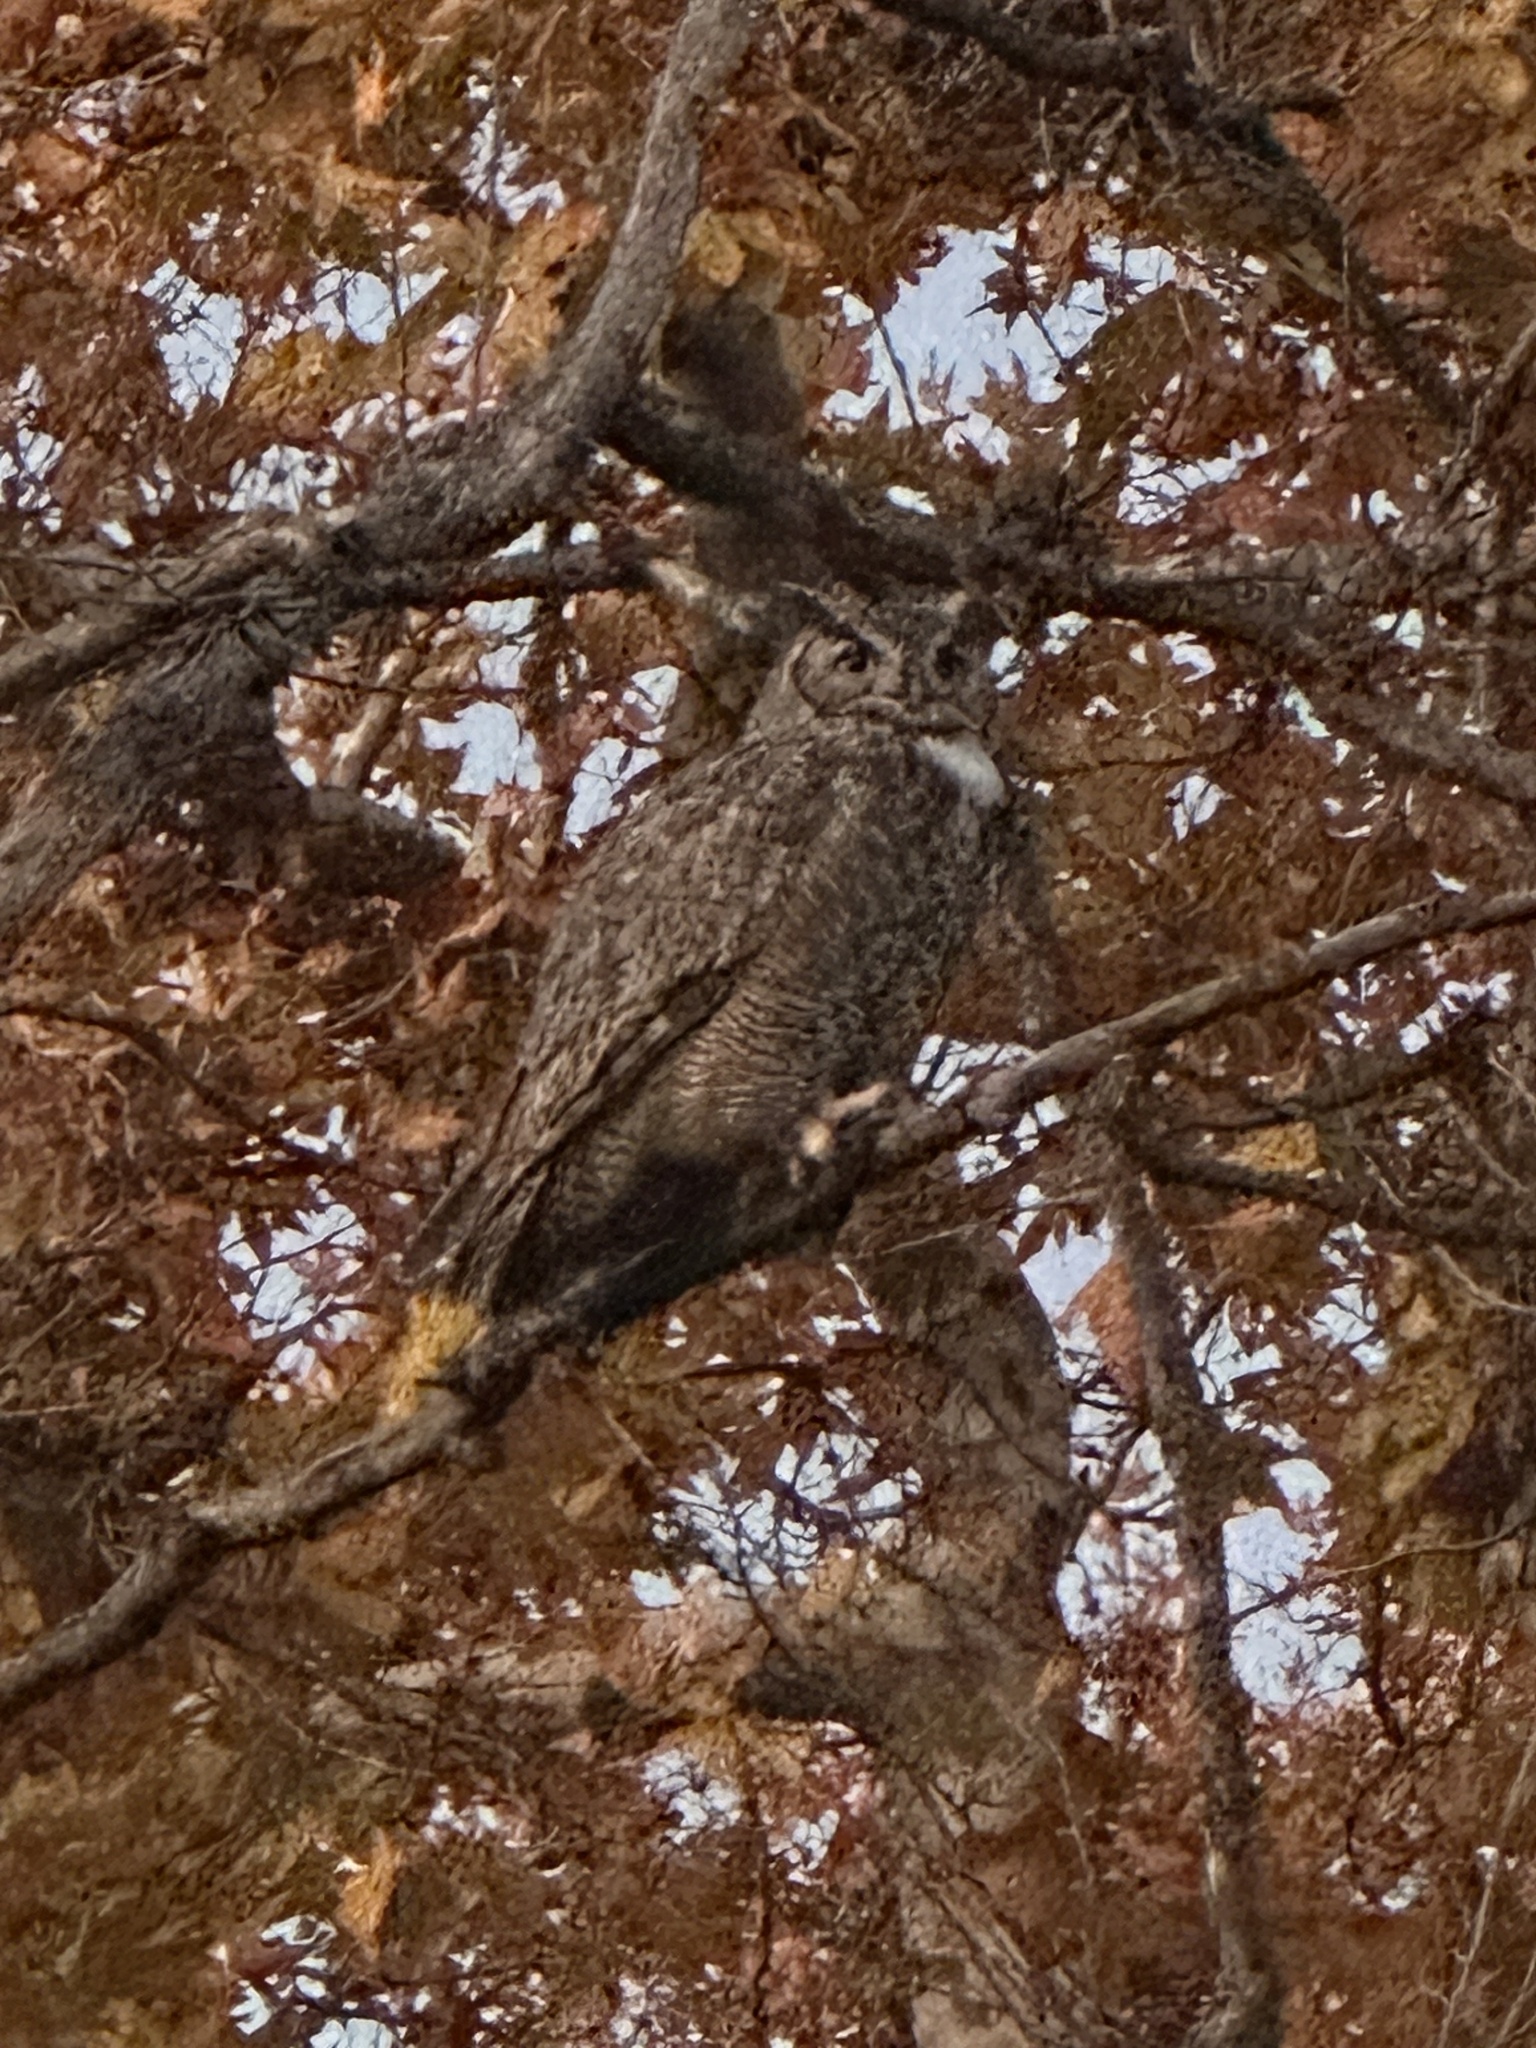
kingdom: Animalia
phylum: Chordata
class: Aves
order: Strigiformes
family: Strigidae
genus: Bubo
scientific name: Bubo virginianus
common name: Great horned owl
